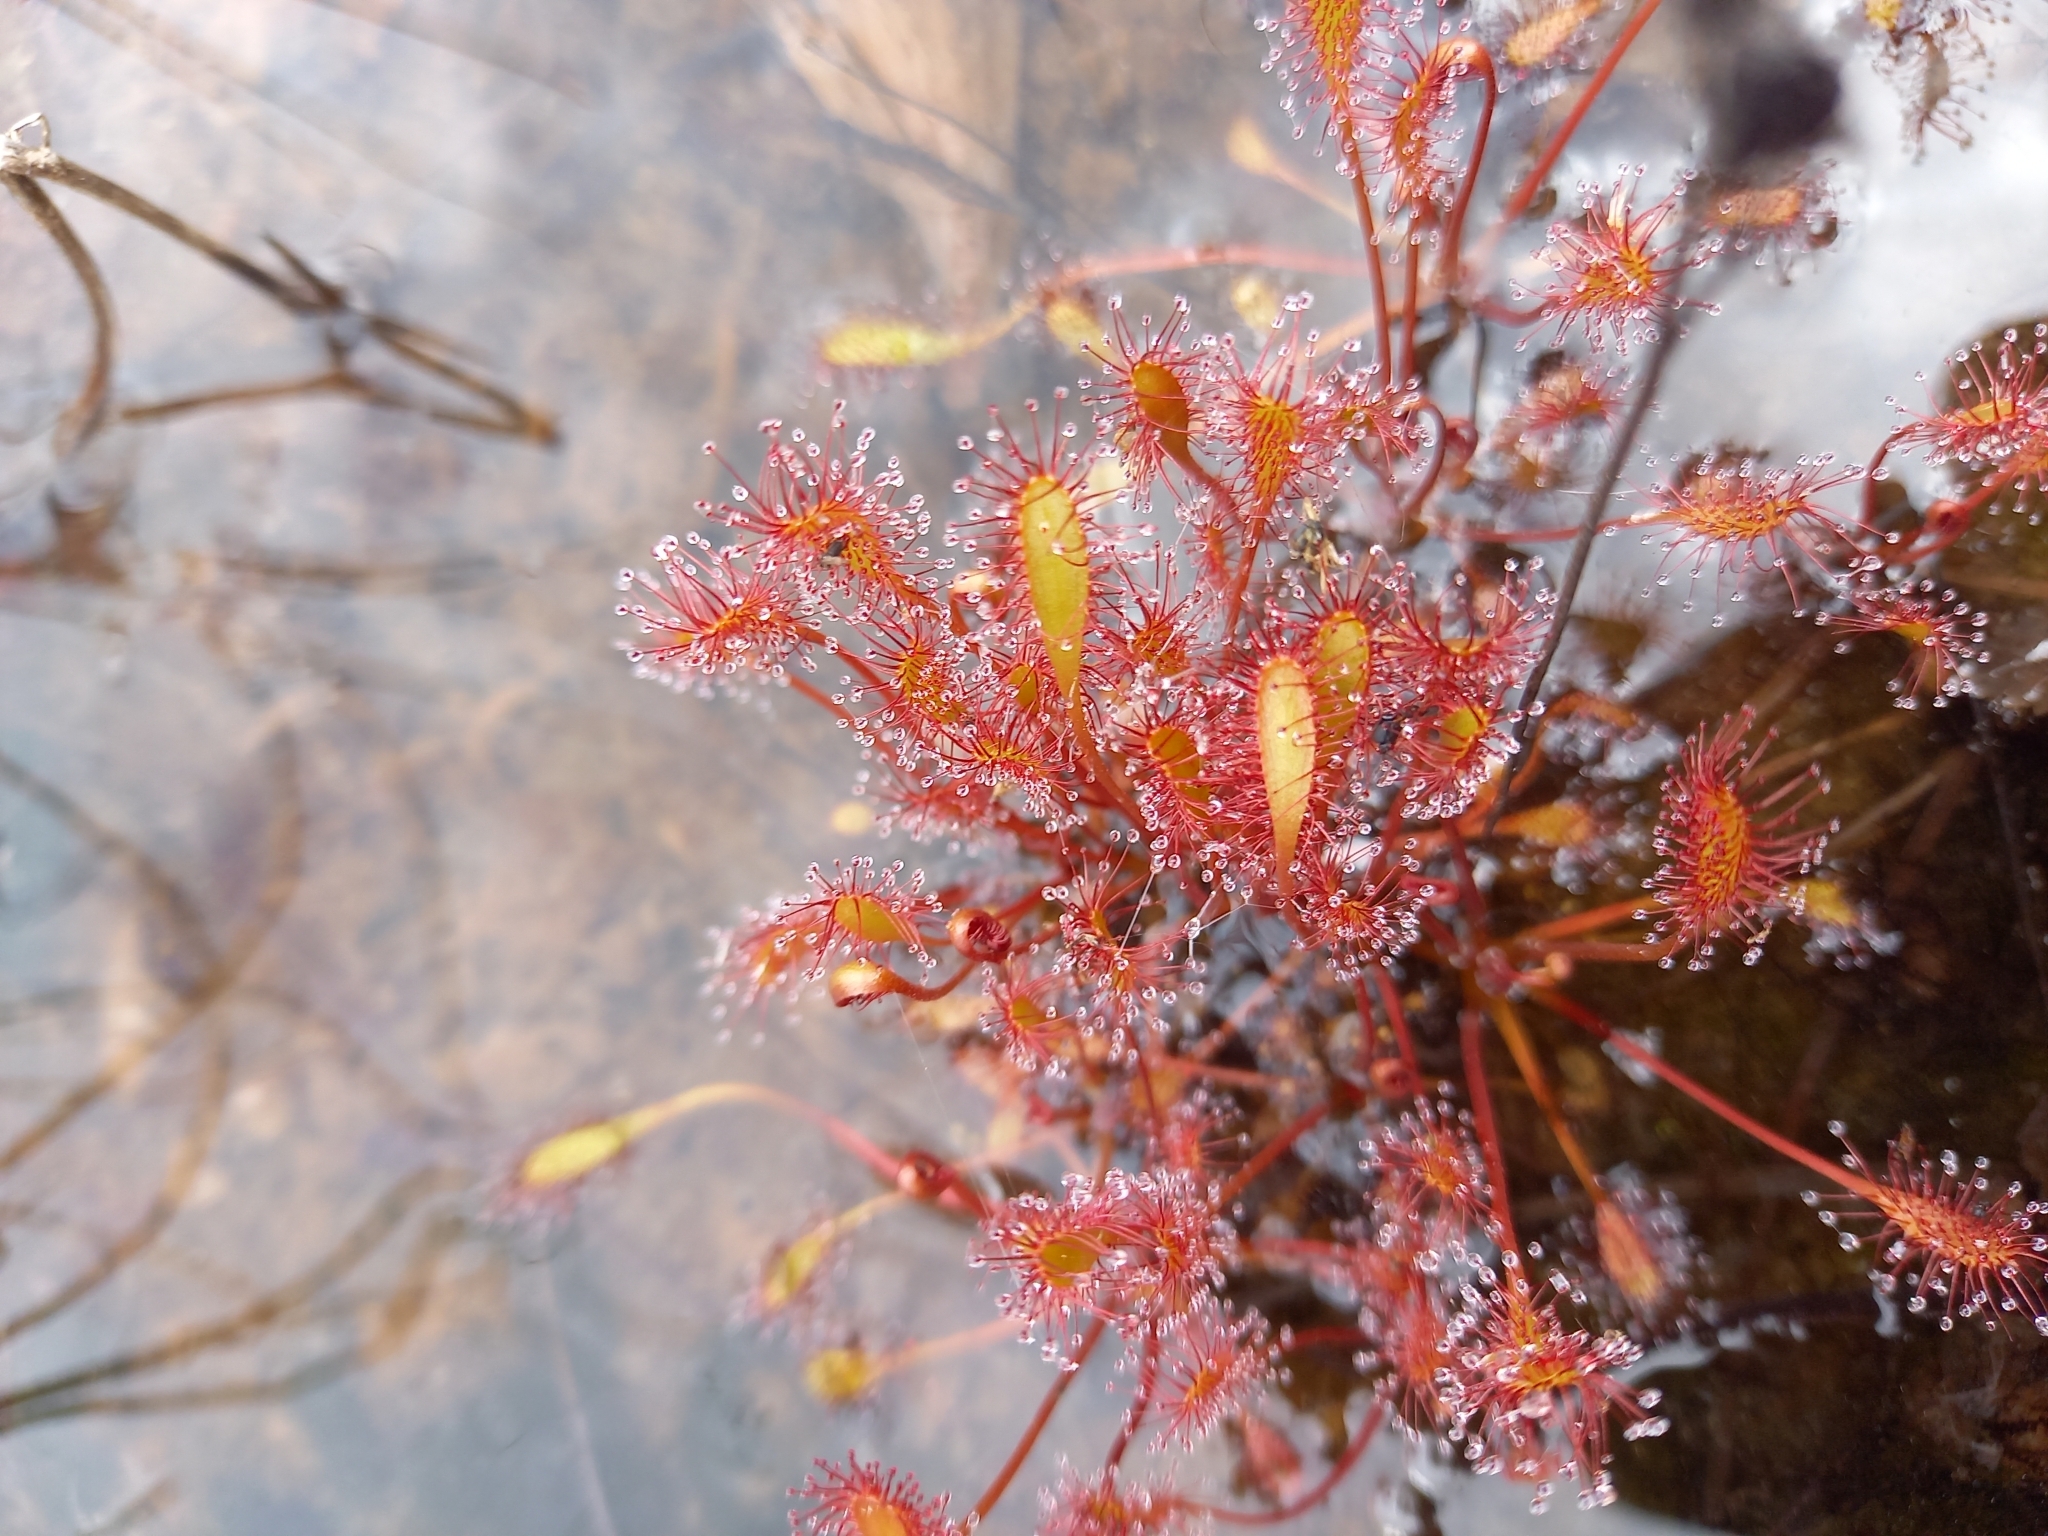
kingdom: Plantae
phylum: Tracheophyta
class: Magnoliopsida
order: Caryophyllales
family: Droseraceae
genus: Drosera
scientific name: Drosera anglica
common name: Great sundew
